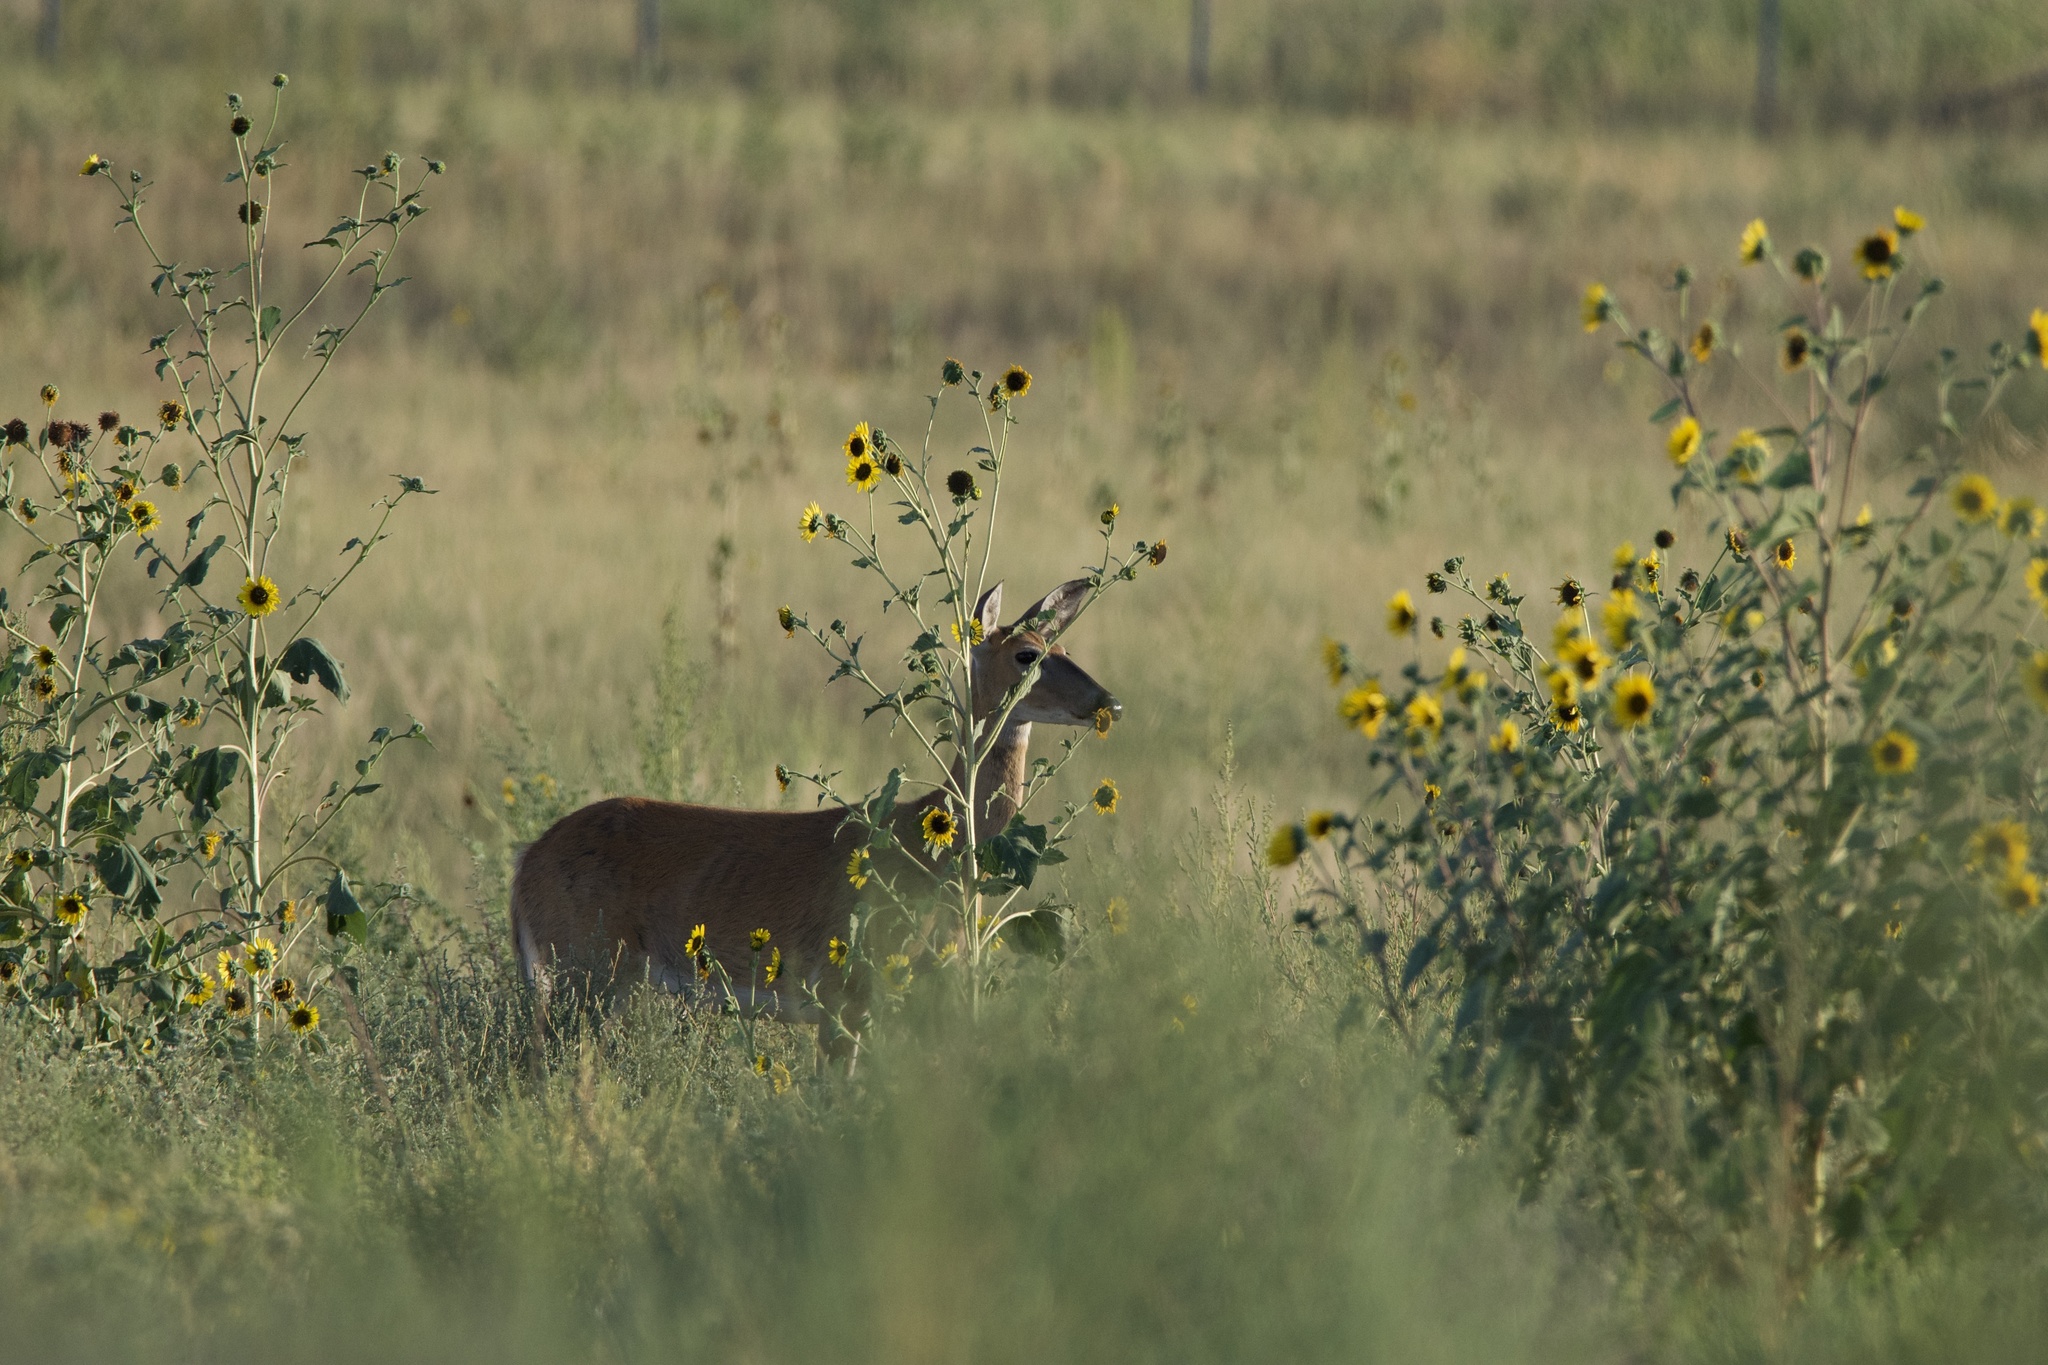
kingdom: Animalia
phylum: Chordata
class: Mammalia
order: Artiodactyla
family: Cervidae
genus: Odocoileus
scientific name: Odocoileus virginianus
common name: White-tailed deer
